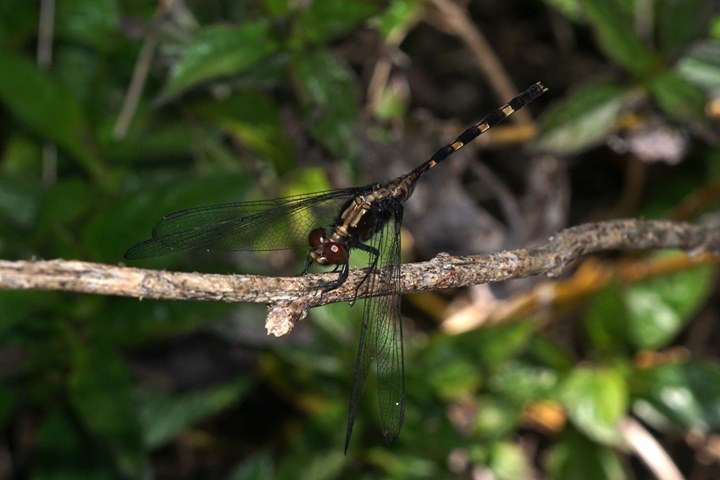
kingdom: Animalia
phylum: Arthropoda
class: Insecta
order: Odonata
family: Libellulidae
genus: Erythemis
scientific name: Erythemis plebeja
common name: Pin-tailed pondhawk
